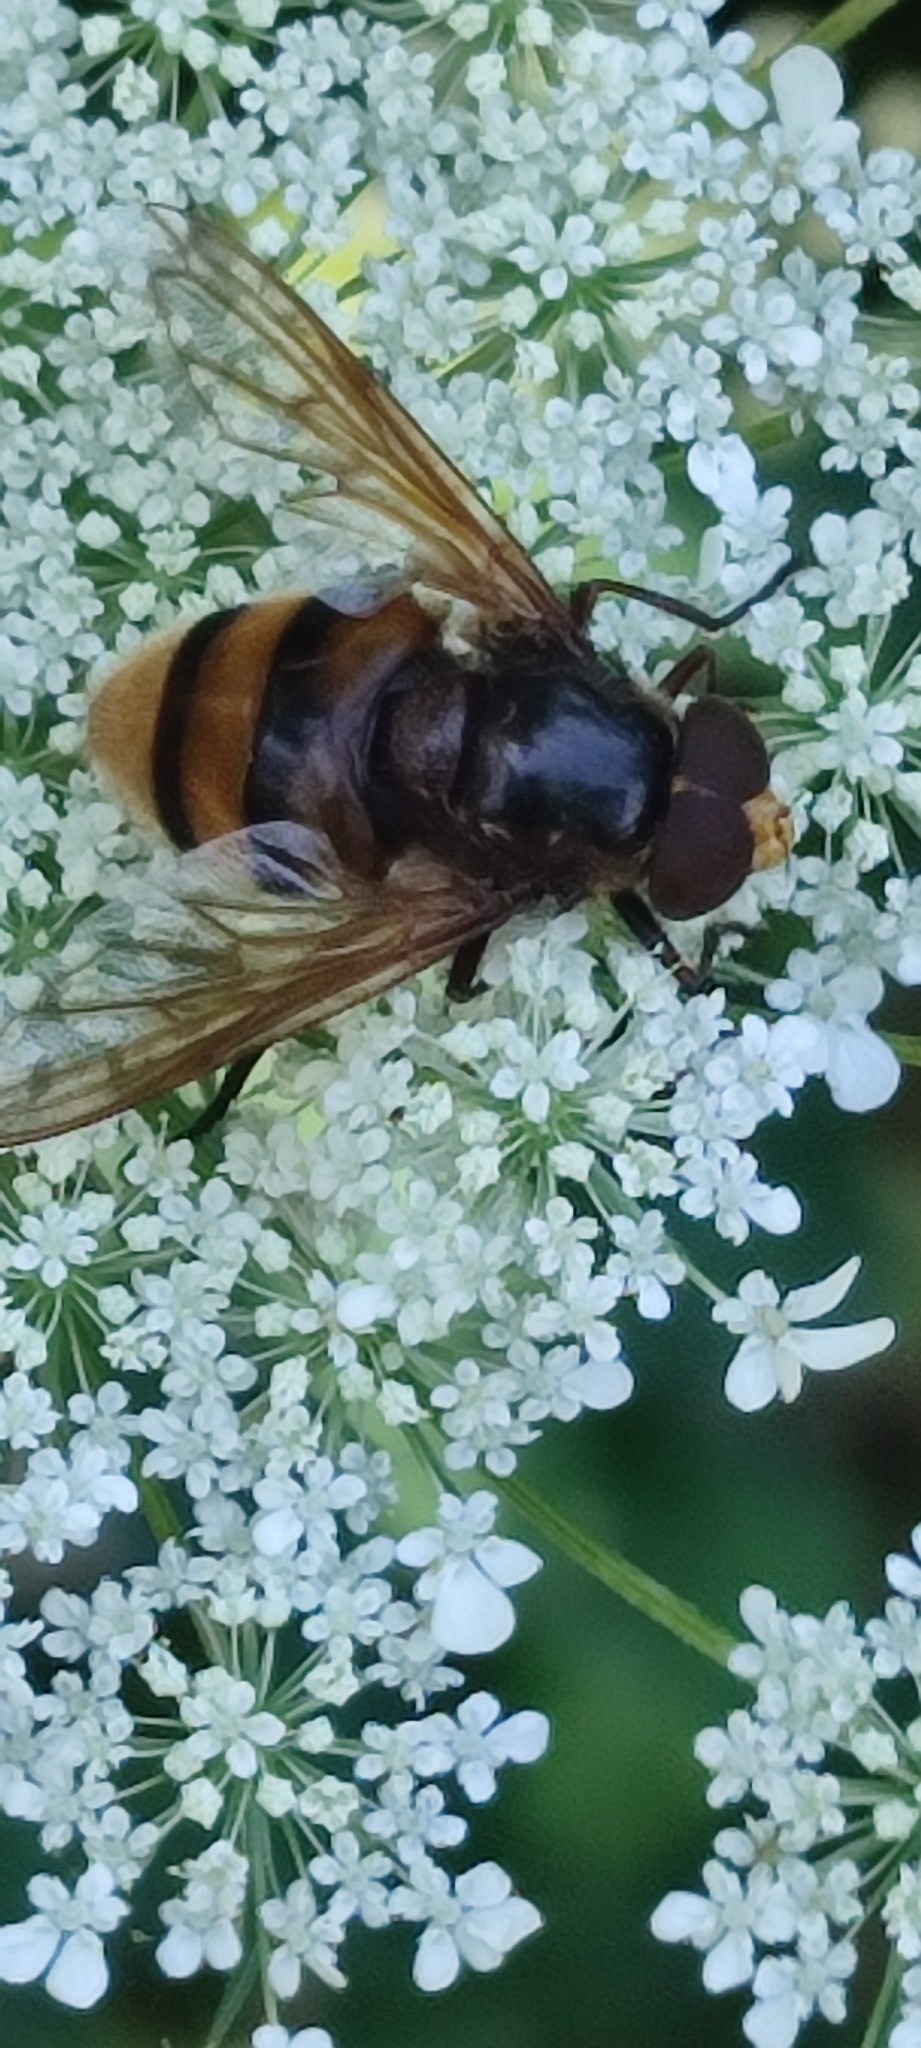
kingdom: Animalia
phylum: Arthropoda
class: Insecta
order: Diptera
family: Syrphidae
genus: Volucella
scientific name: Volucella zonaria
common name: Hornet hoverfly
